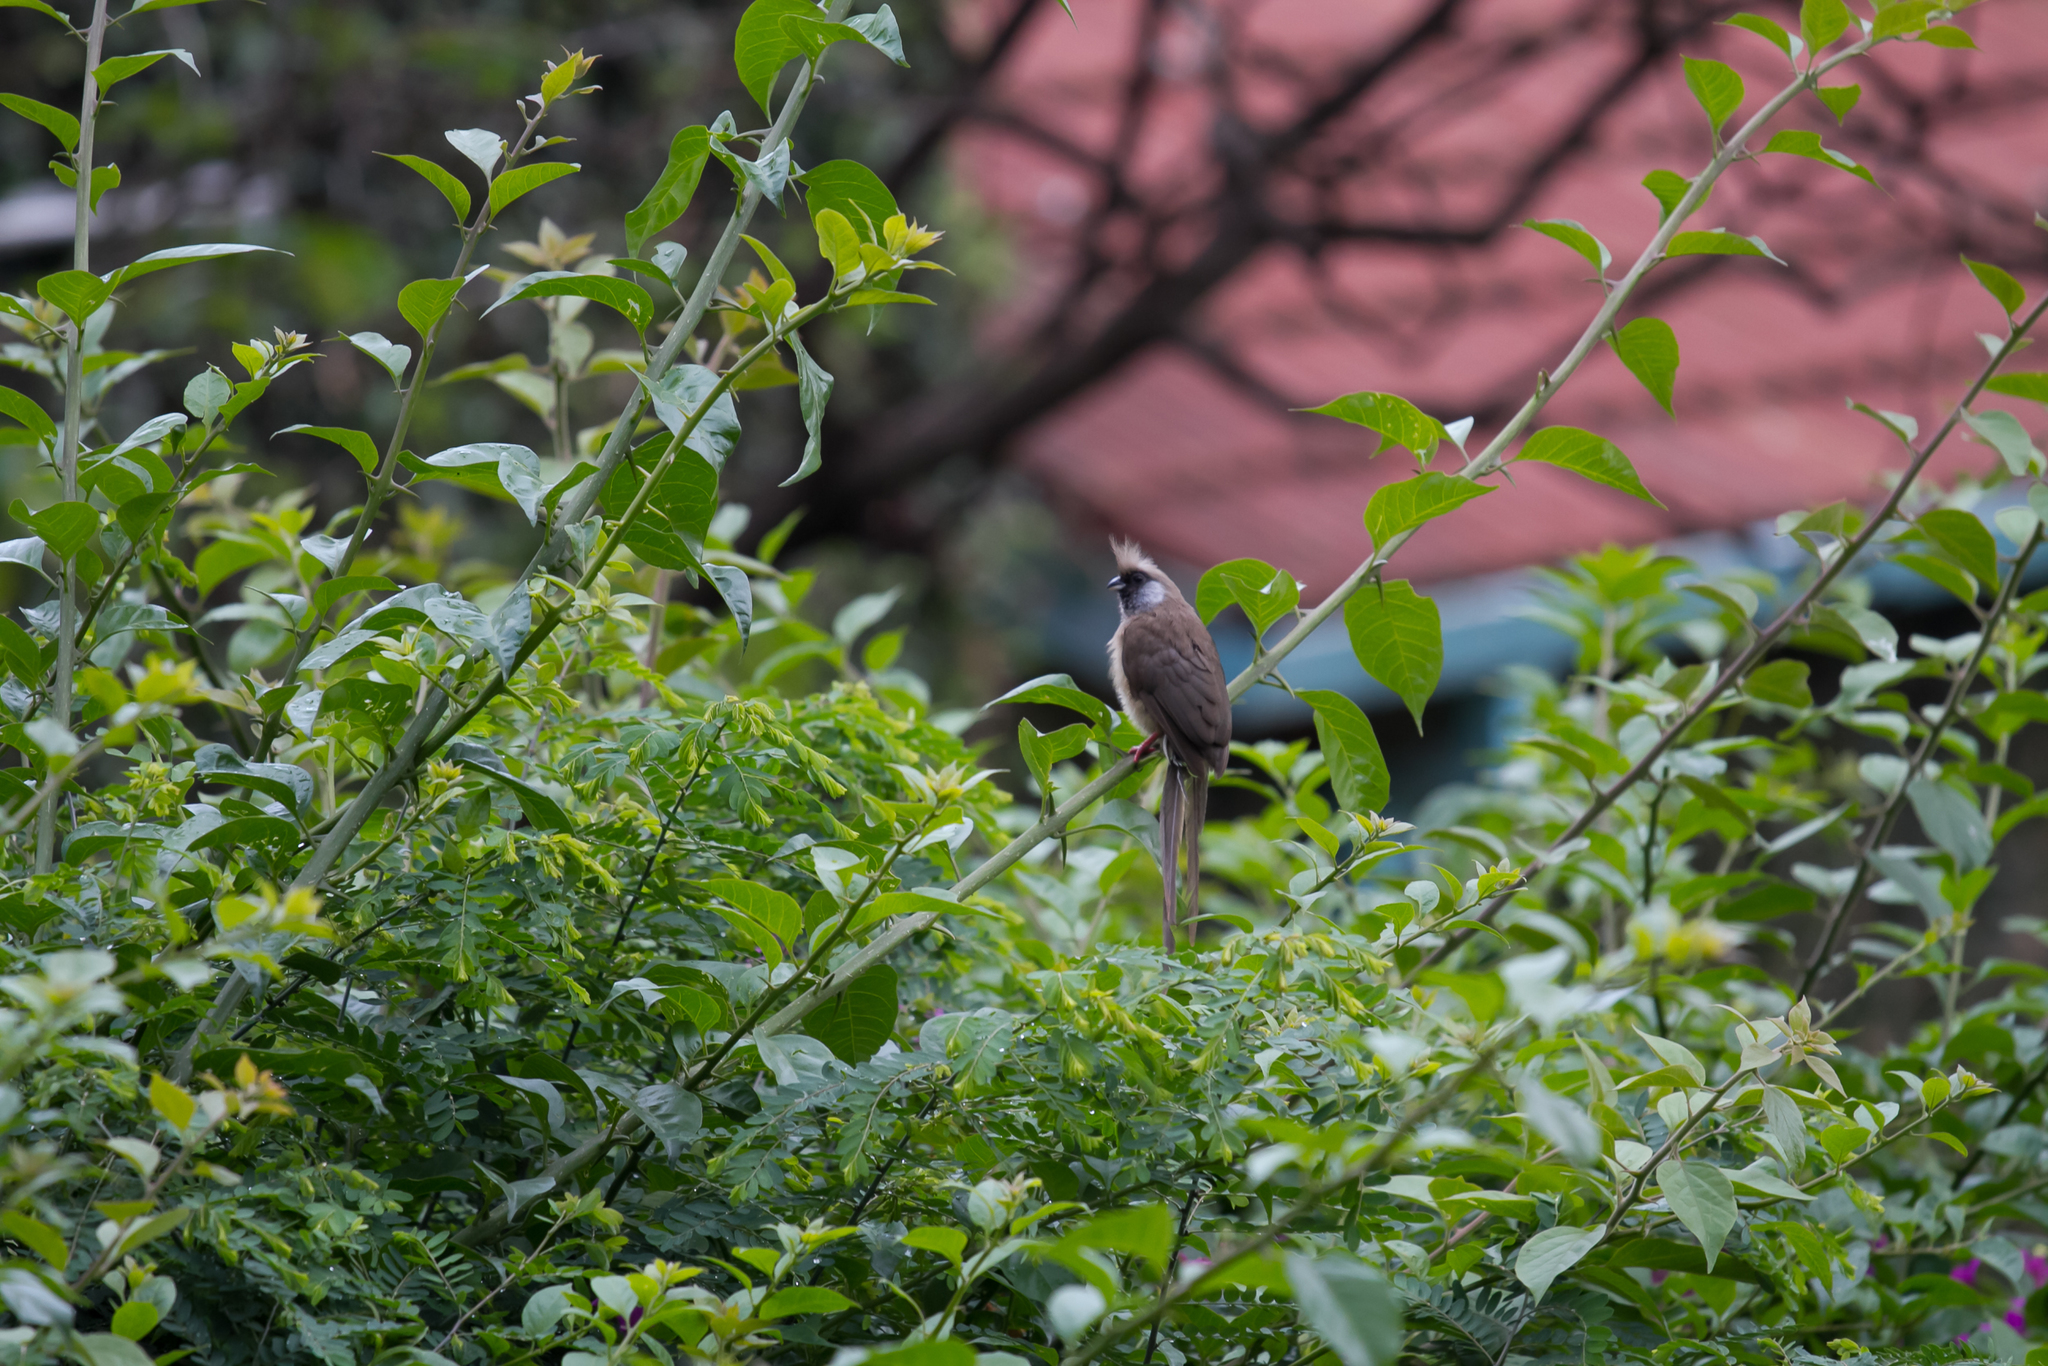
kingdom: Animalia
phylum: Chordata
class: Aves
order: Coliiformes
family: Coliidae
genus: Colius
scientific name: Colius striatus
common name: Speckled mousebird
